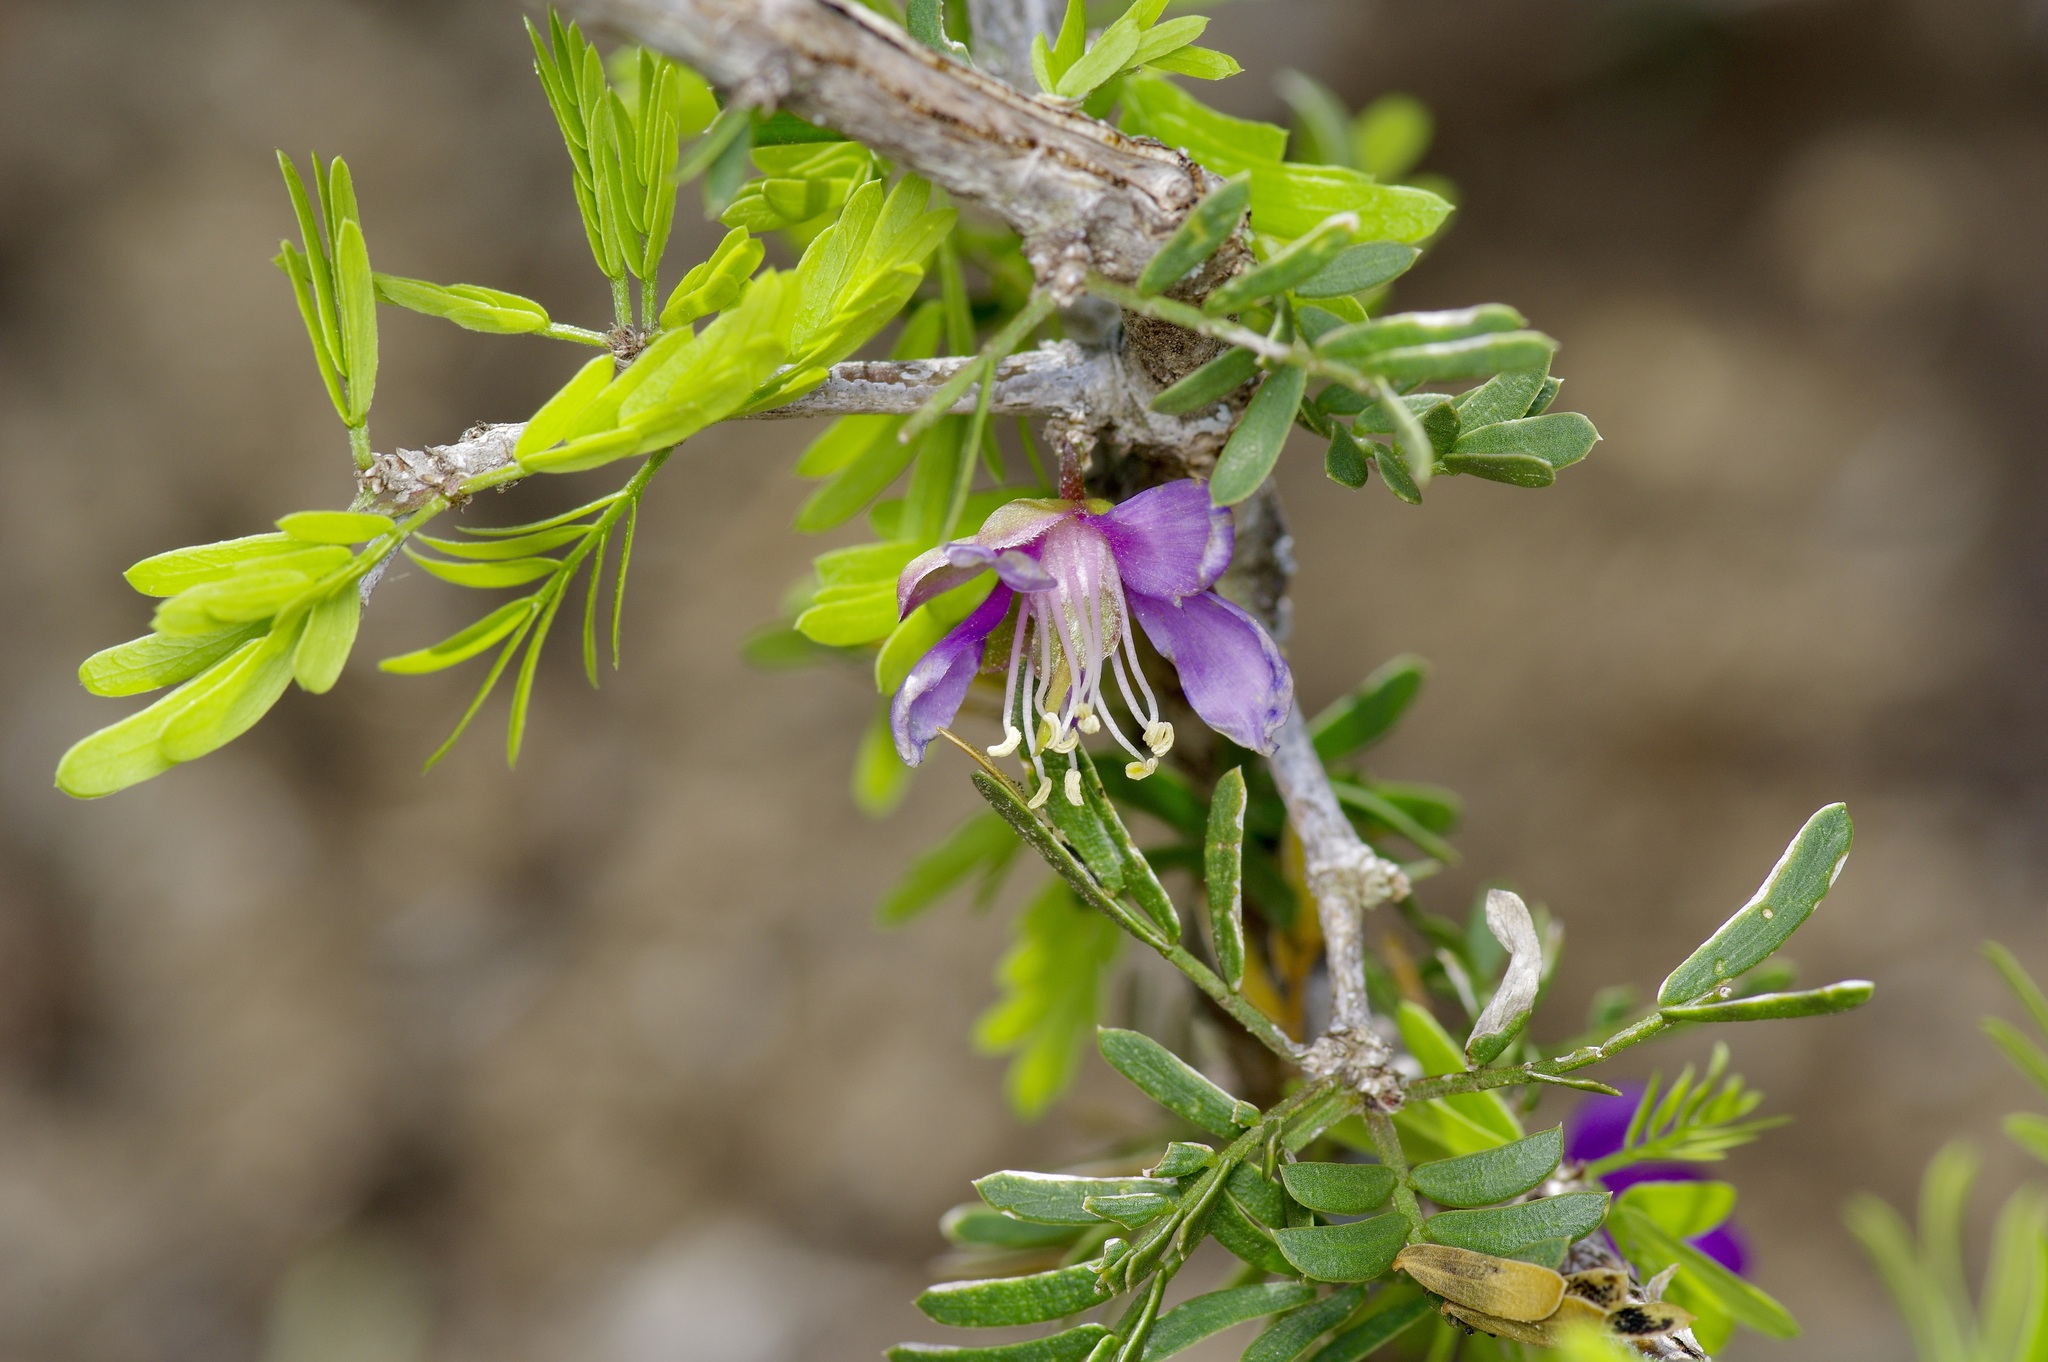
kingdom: Plantae
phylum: Tracheophyta
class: Magnoliopsida
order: Zygophyllales
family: Zygophyllaceae
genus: Porlieria
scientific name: Porlieria angustifolia
